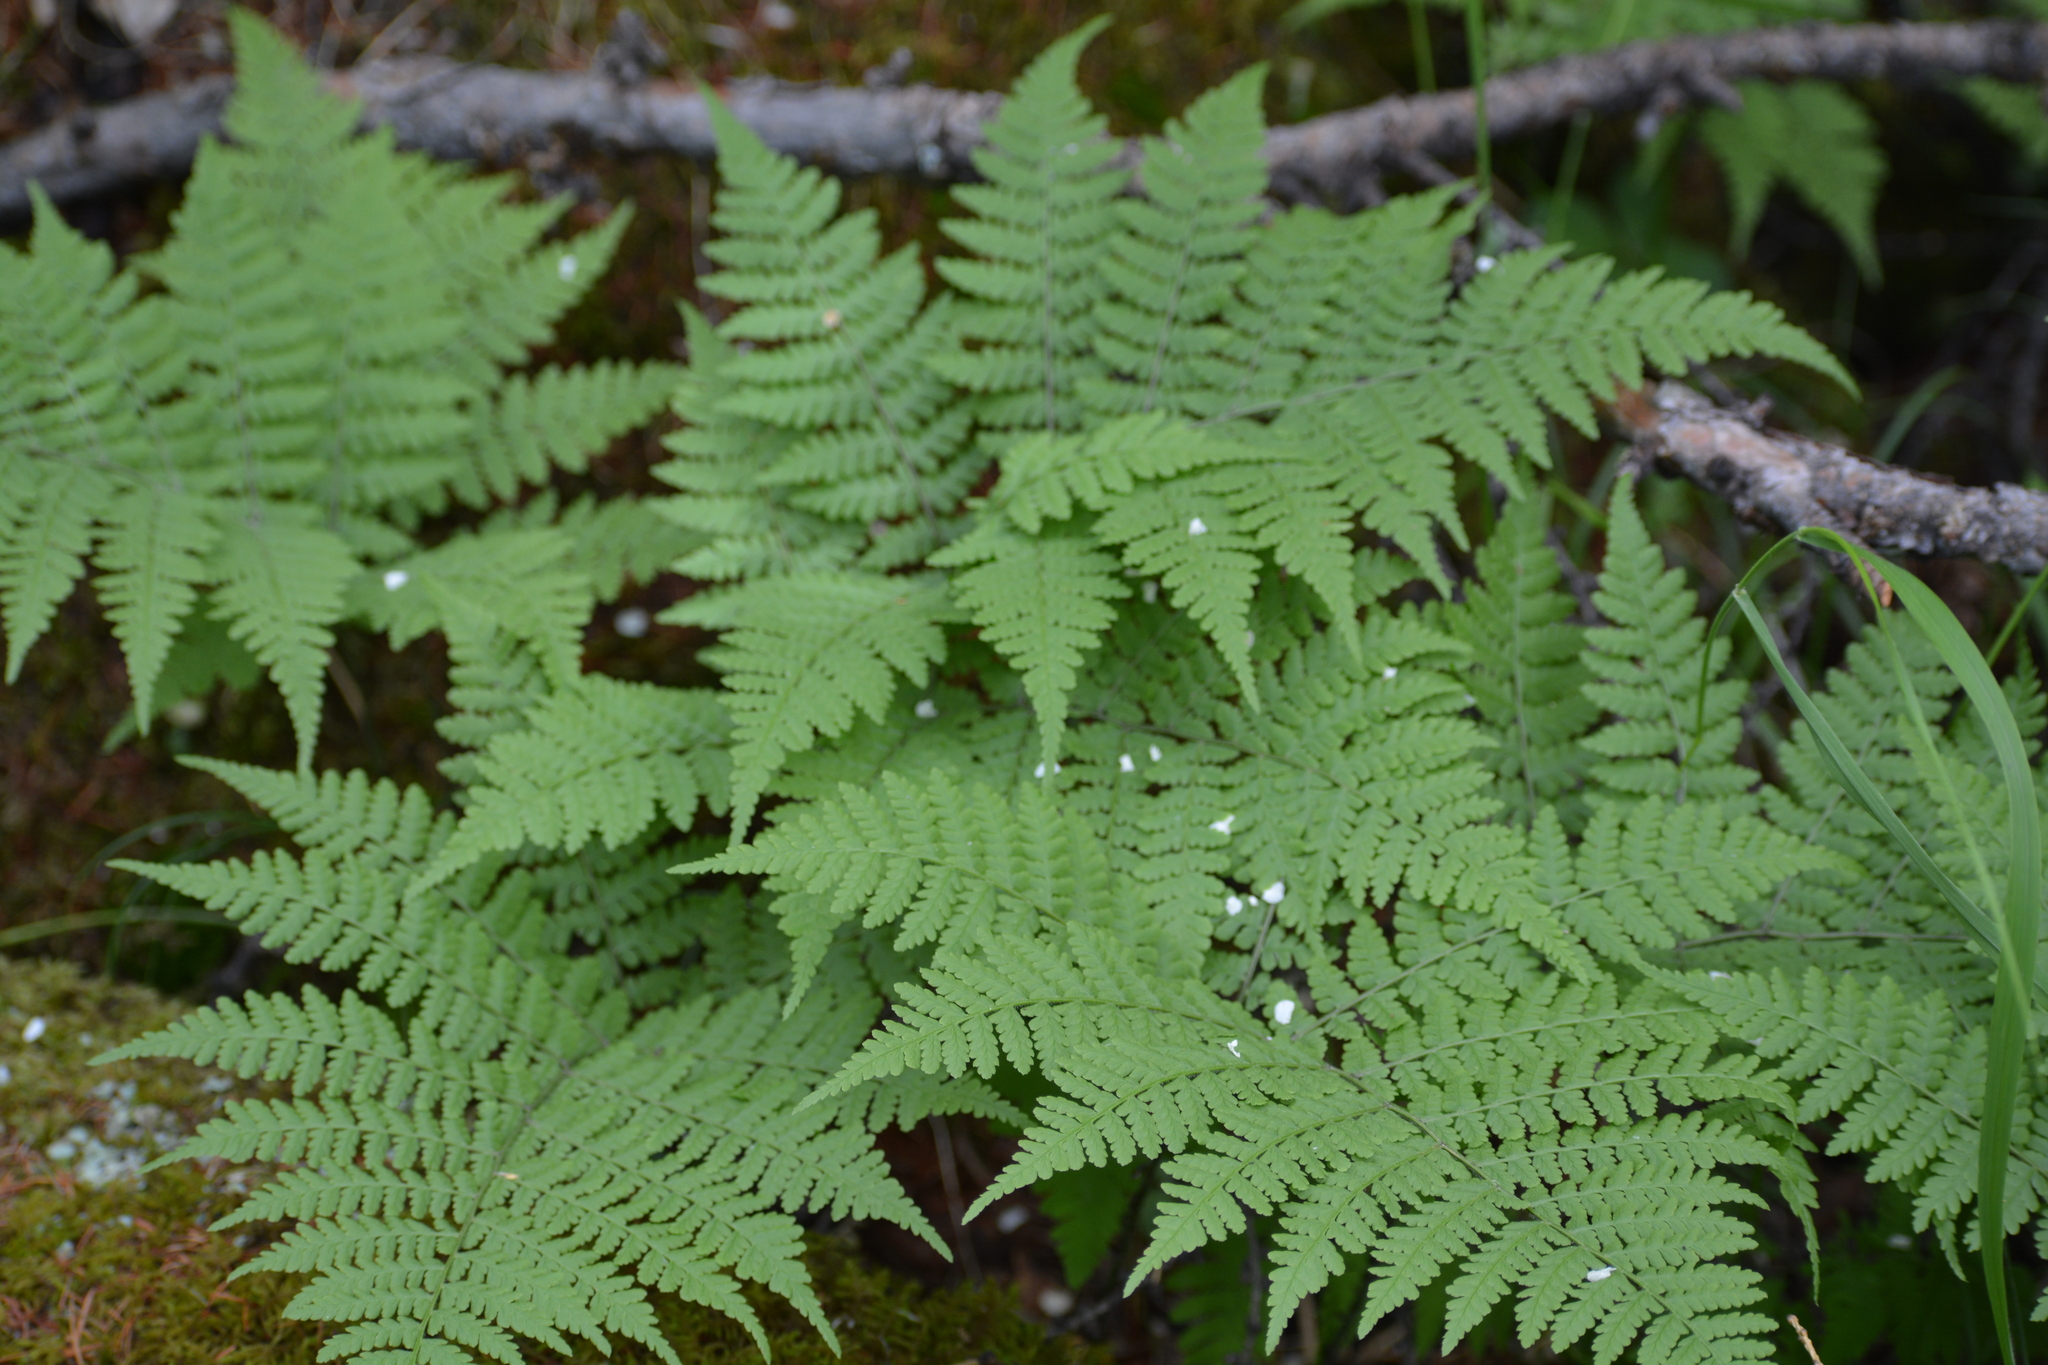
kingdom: Plantae
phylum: Tracheophyta
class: Polypodiopsida
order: Polypodiales
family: Athyriaceae
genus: Diplazium
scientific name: Diplazium sibiricum
